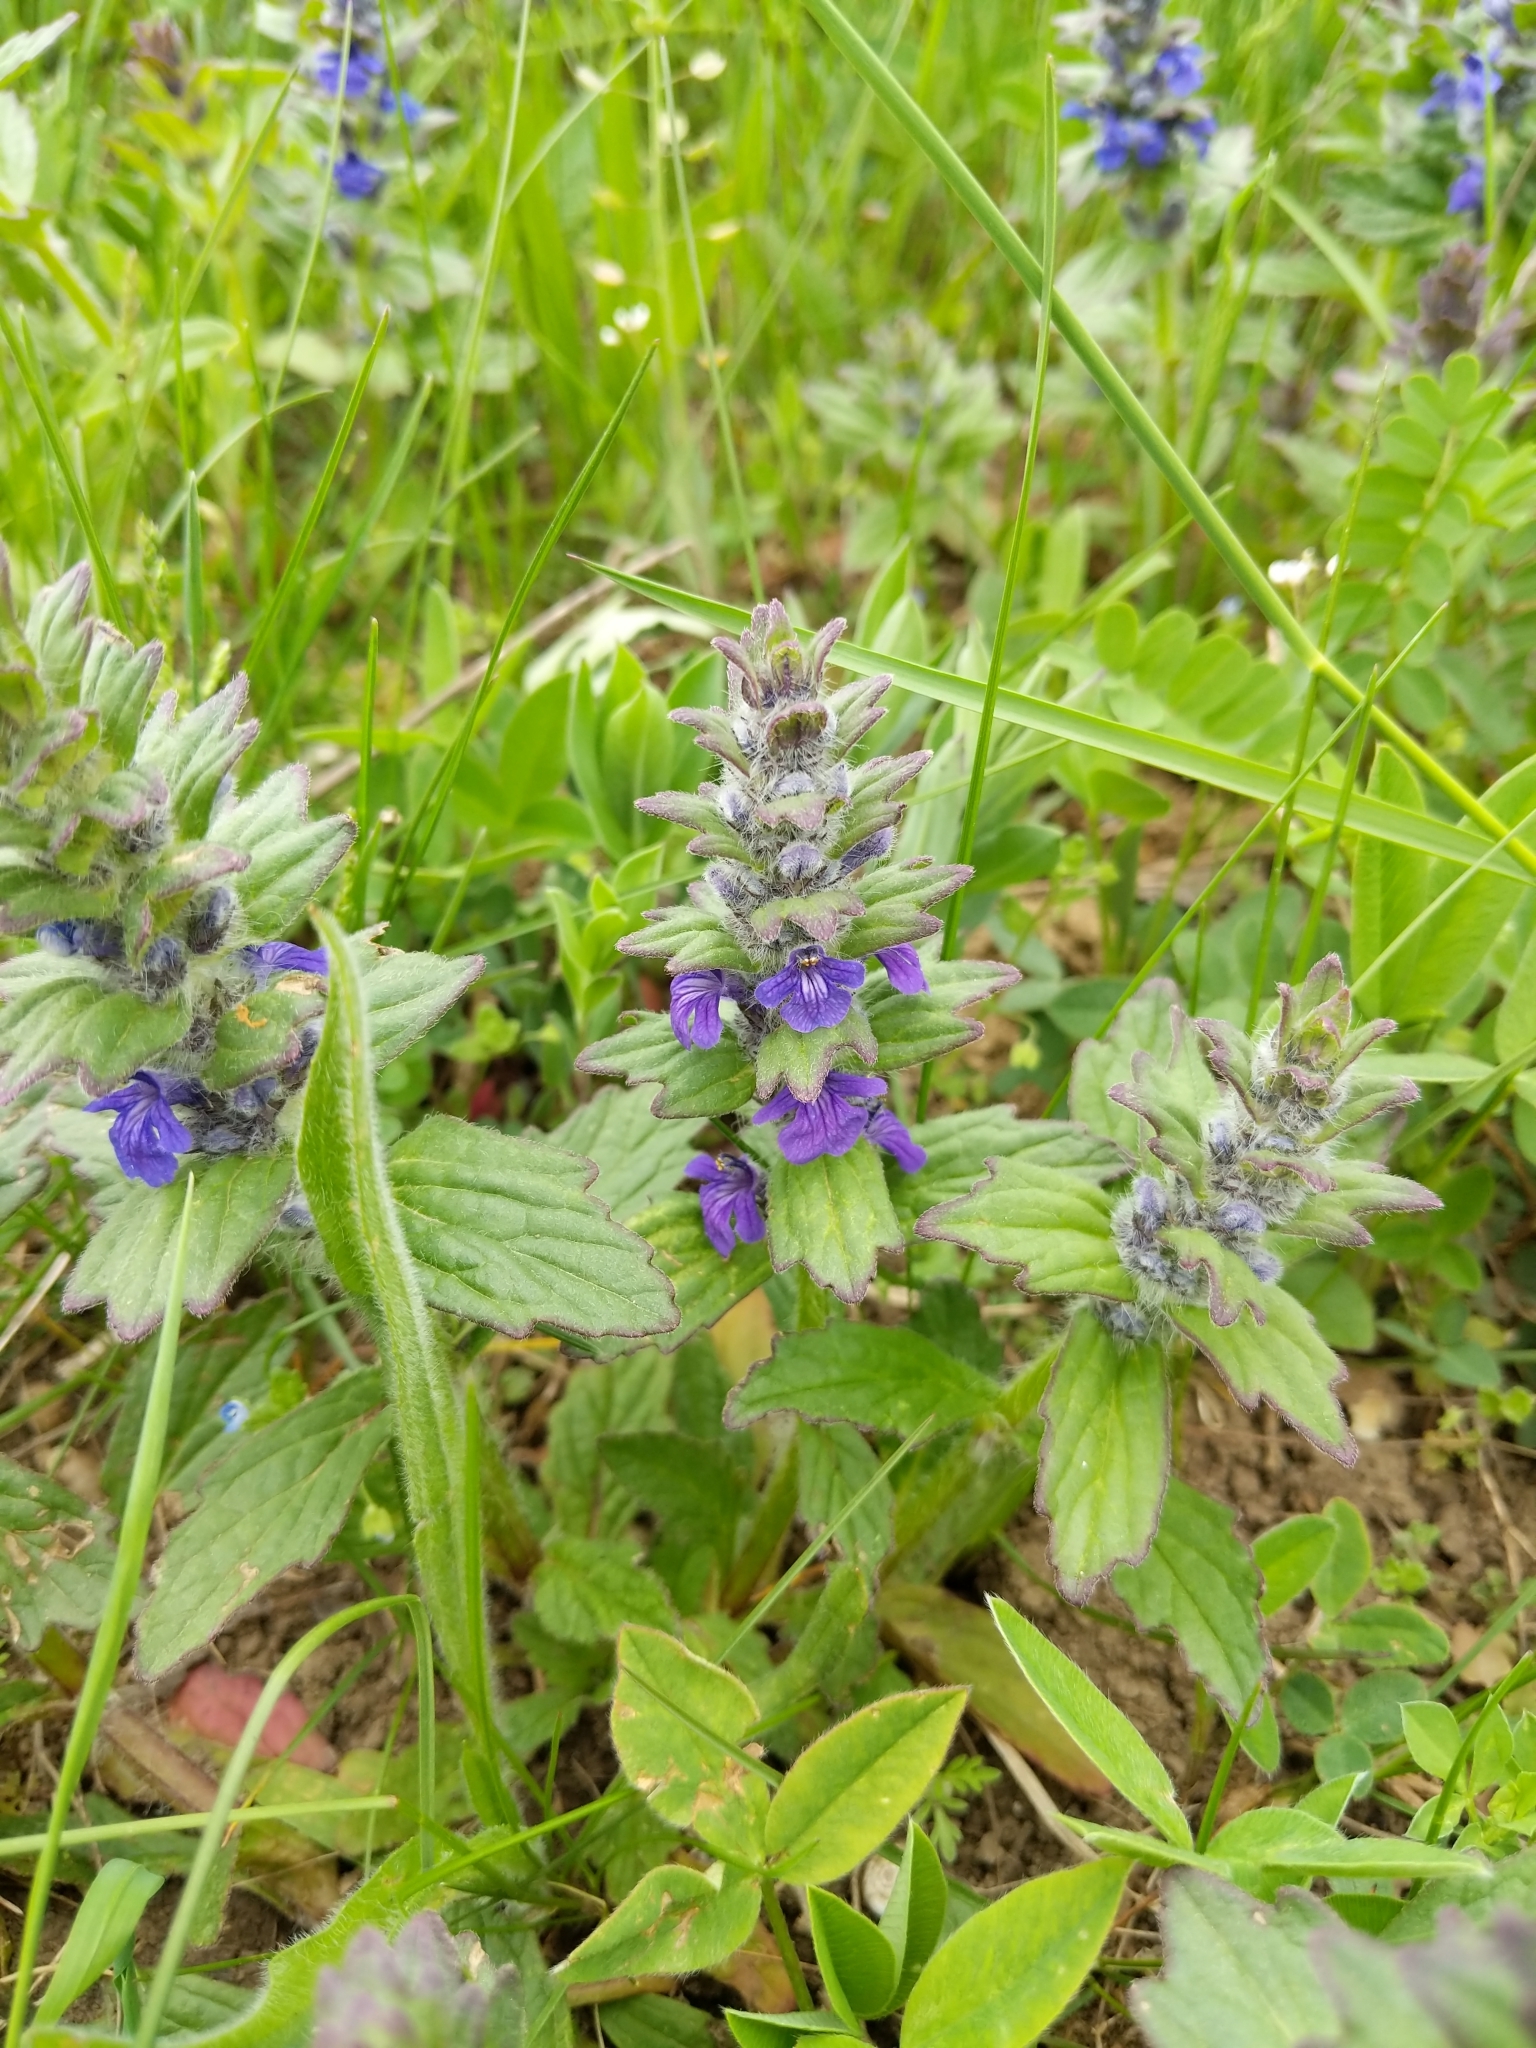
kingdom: Plantae
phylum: Tracheophyta
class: Magnoliopsida
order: Lamiales
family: Lamiaceae
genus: Ajuga
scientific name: Ajuga genevensis
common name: Blue bugle
